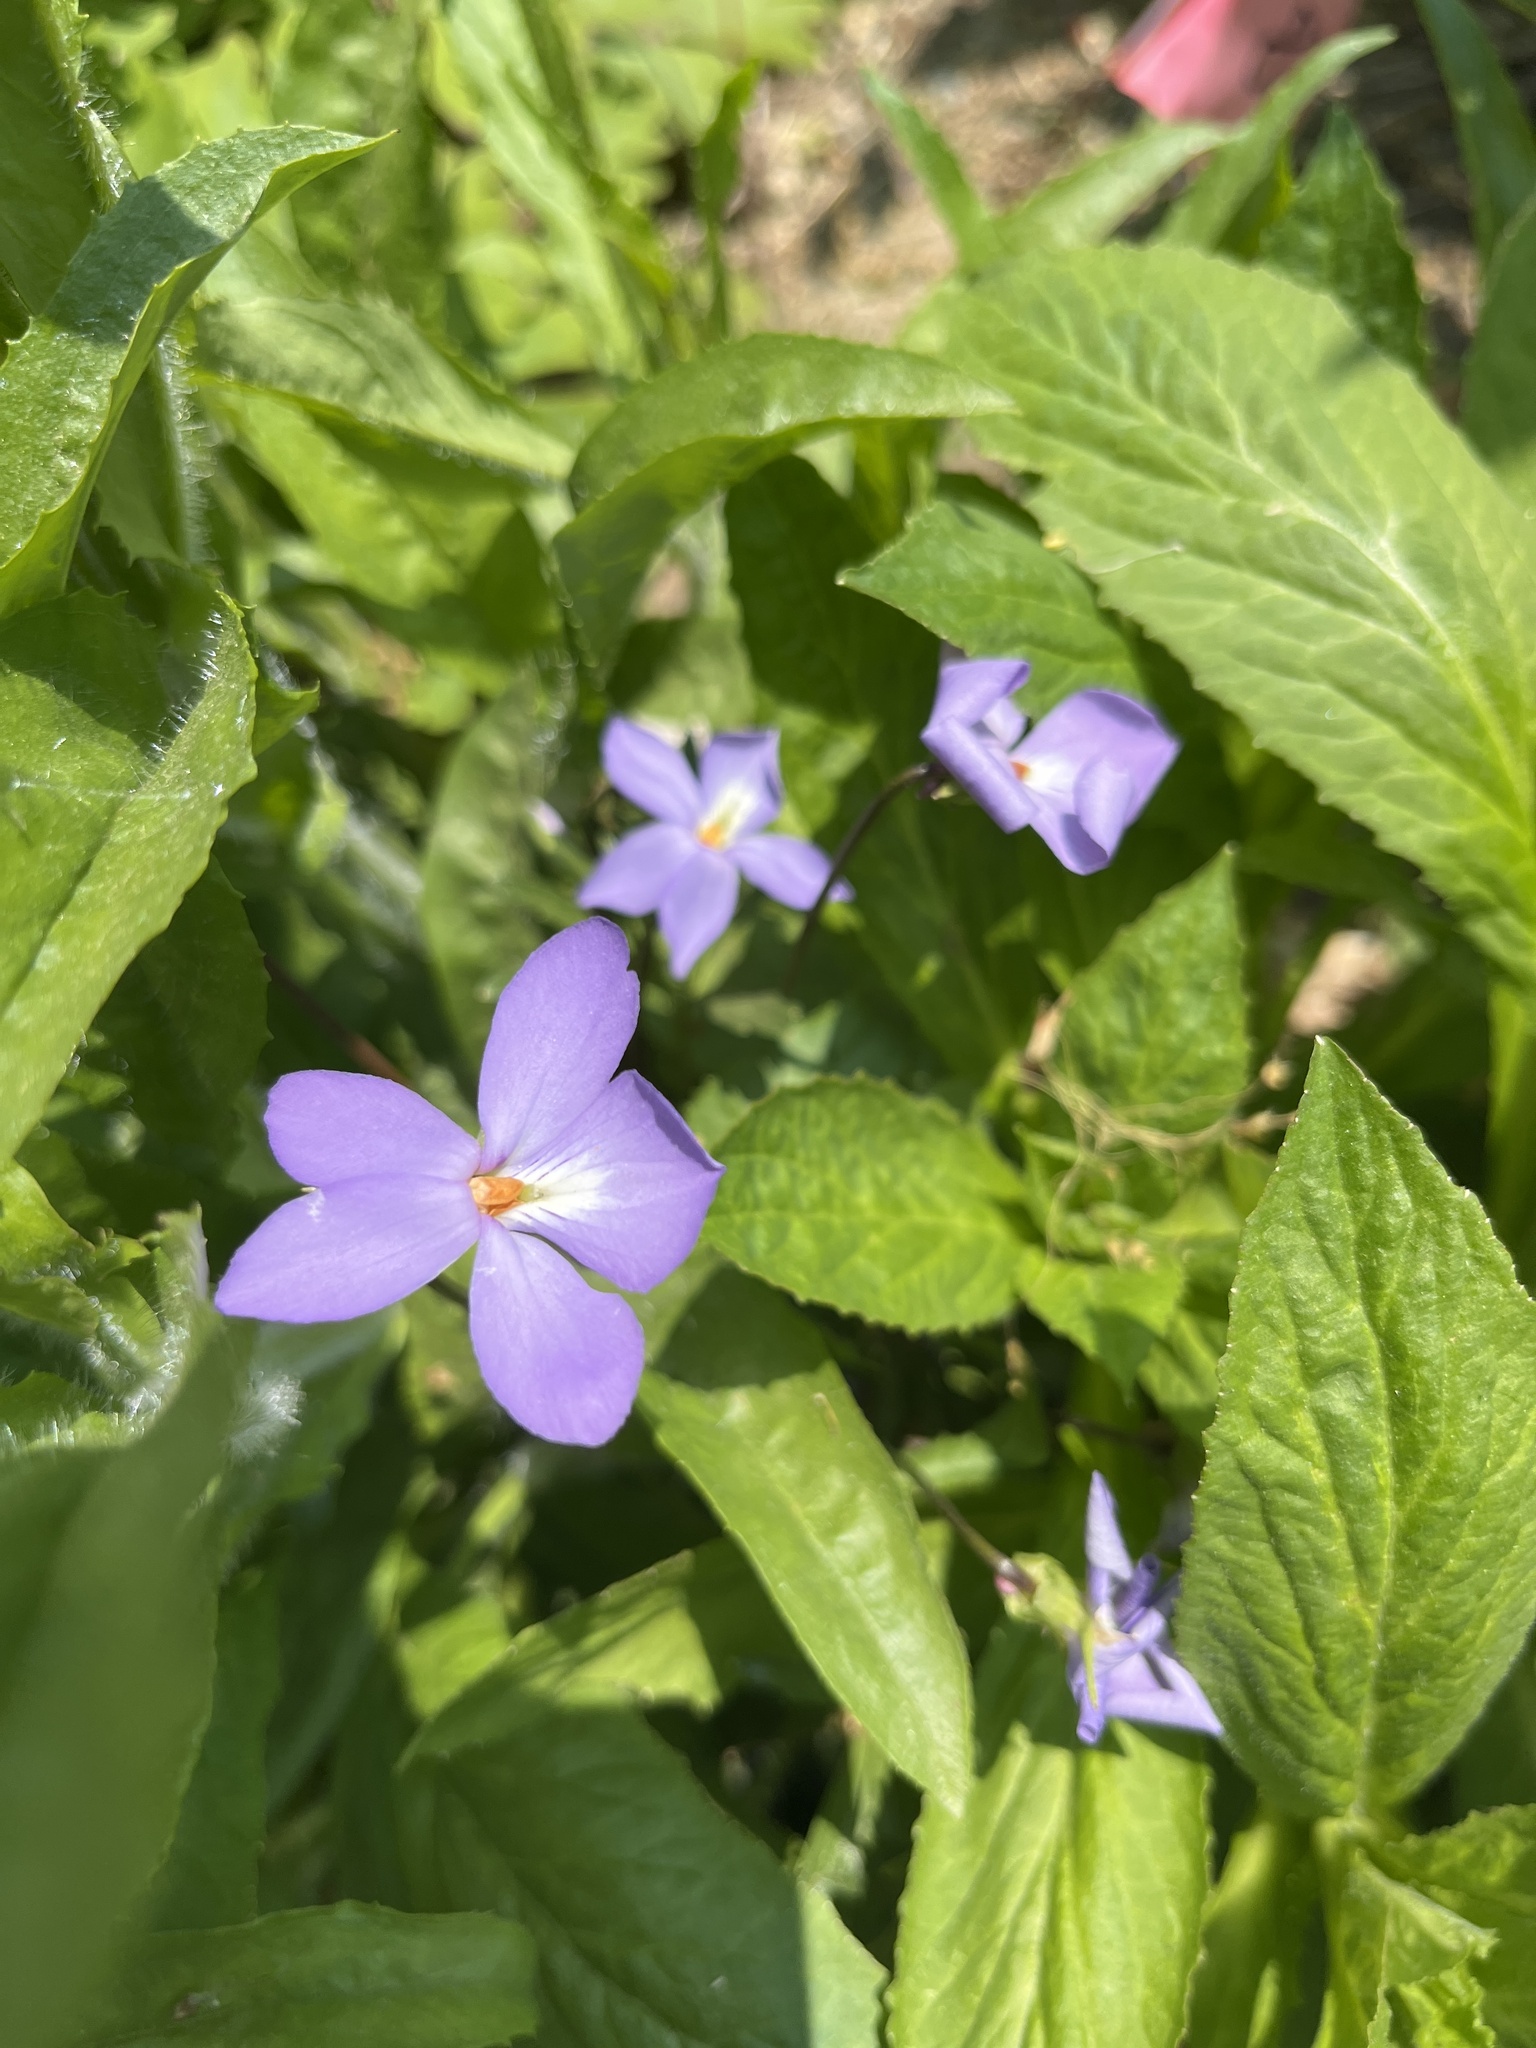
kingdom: Plantae
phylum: Tracheophyta
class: Magnoliopsida
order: Malpighiales
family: Violaceae
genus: Viola
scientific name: Viola pedata
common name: Pansy violet
